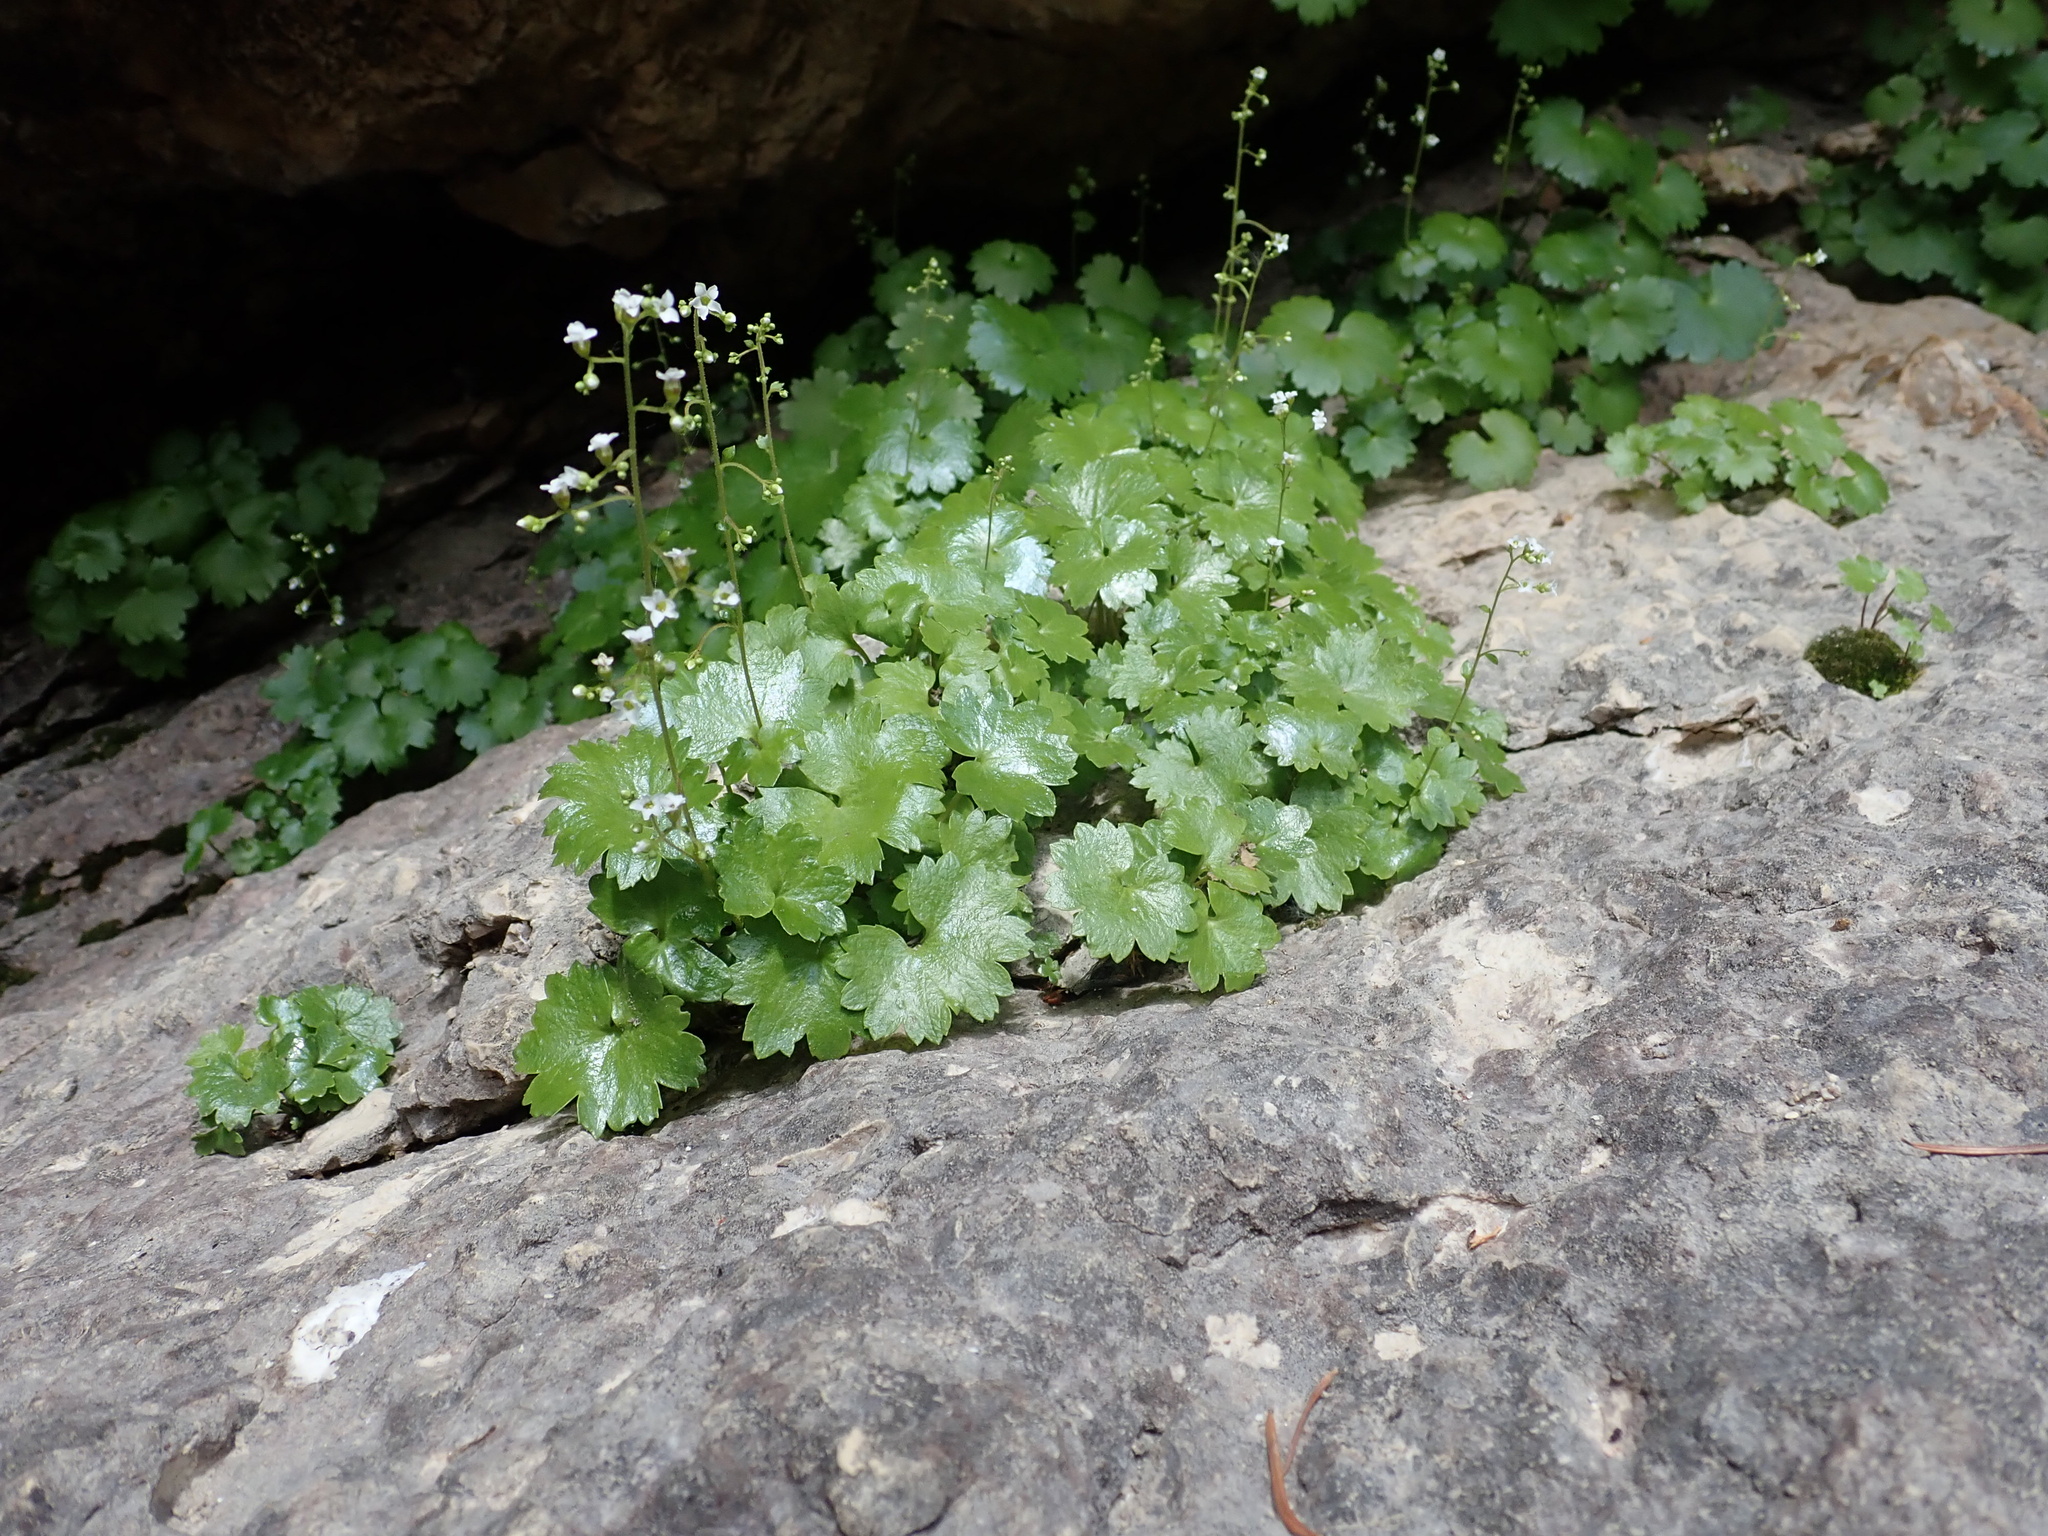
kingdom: Plantae
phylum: Tracheophyta
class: Magnoliopsida
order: Saxifragales
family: Saxifragaceae
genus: Sullivantia
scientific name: Sullivantia hapemanii
